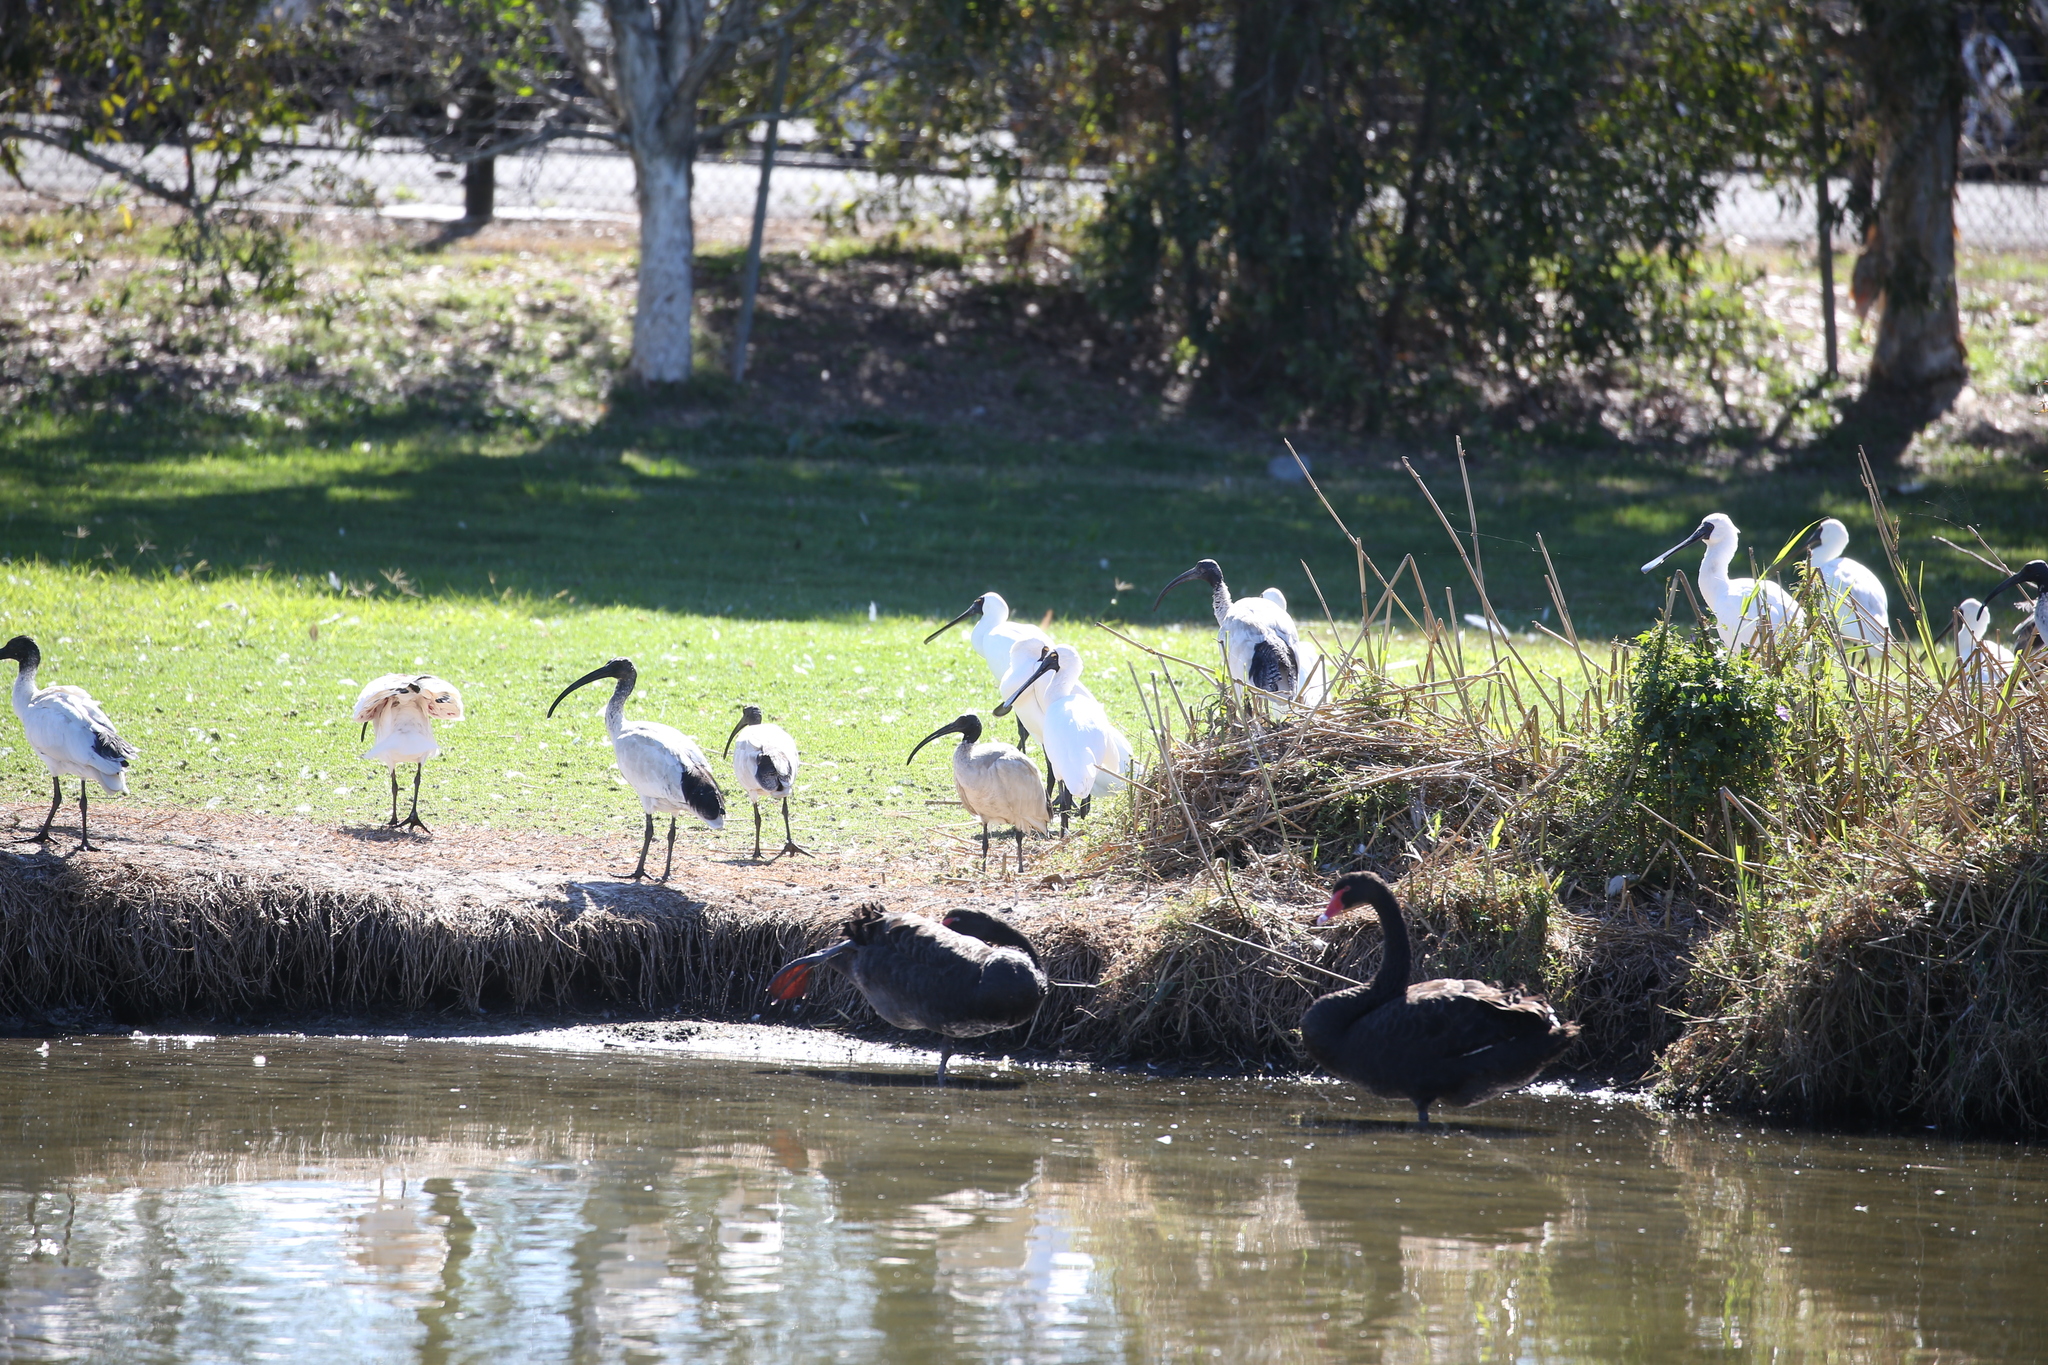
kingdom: Animalia
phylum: Chordata
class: Aves
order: Pelecaniformes
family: Threskiornithidae
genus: Threskiornis
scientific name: Threskiornis molucca
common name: Australian white ibis
